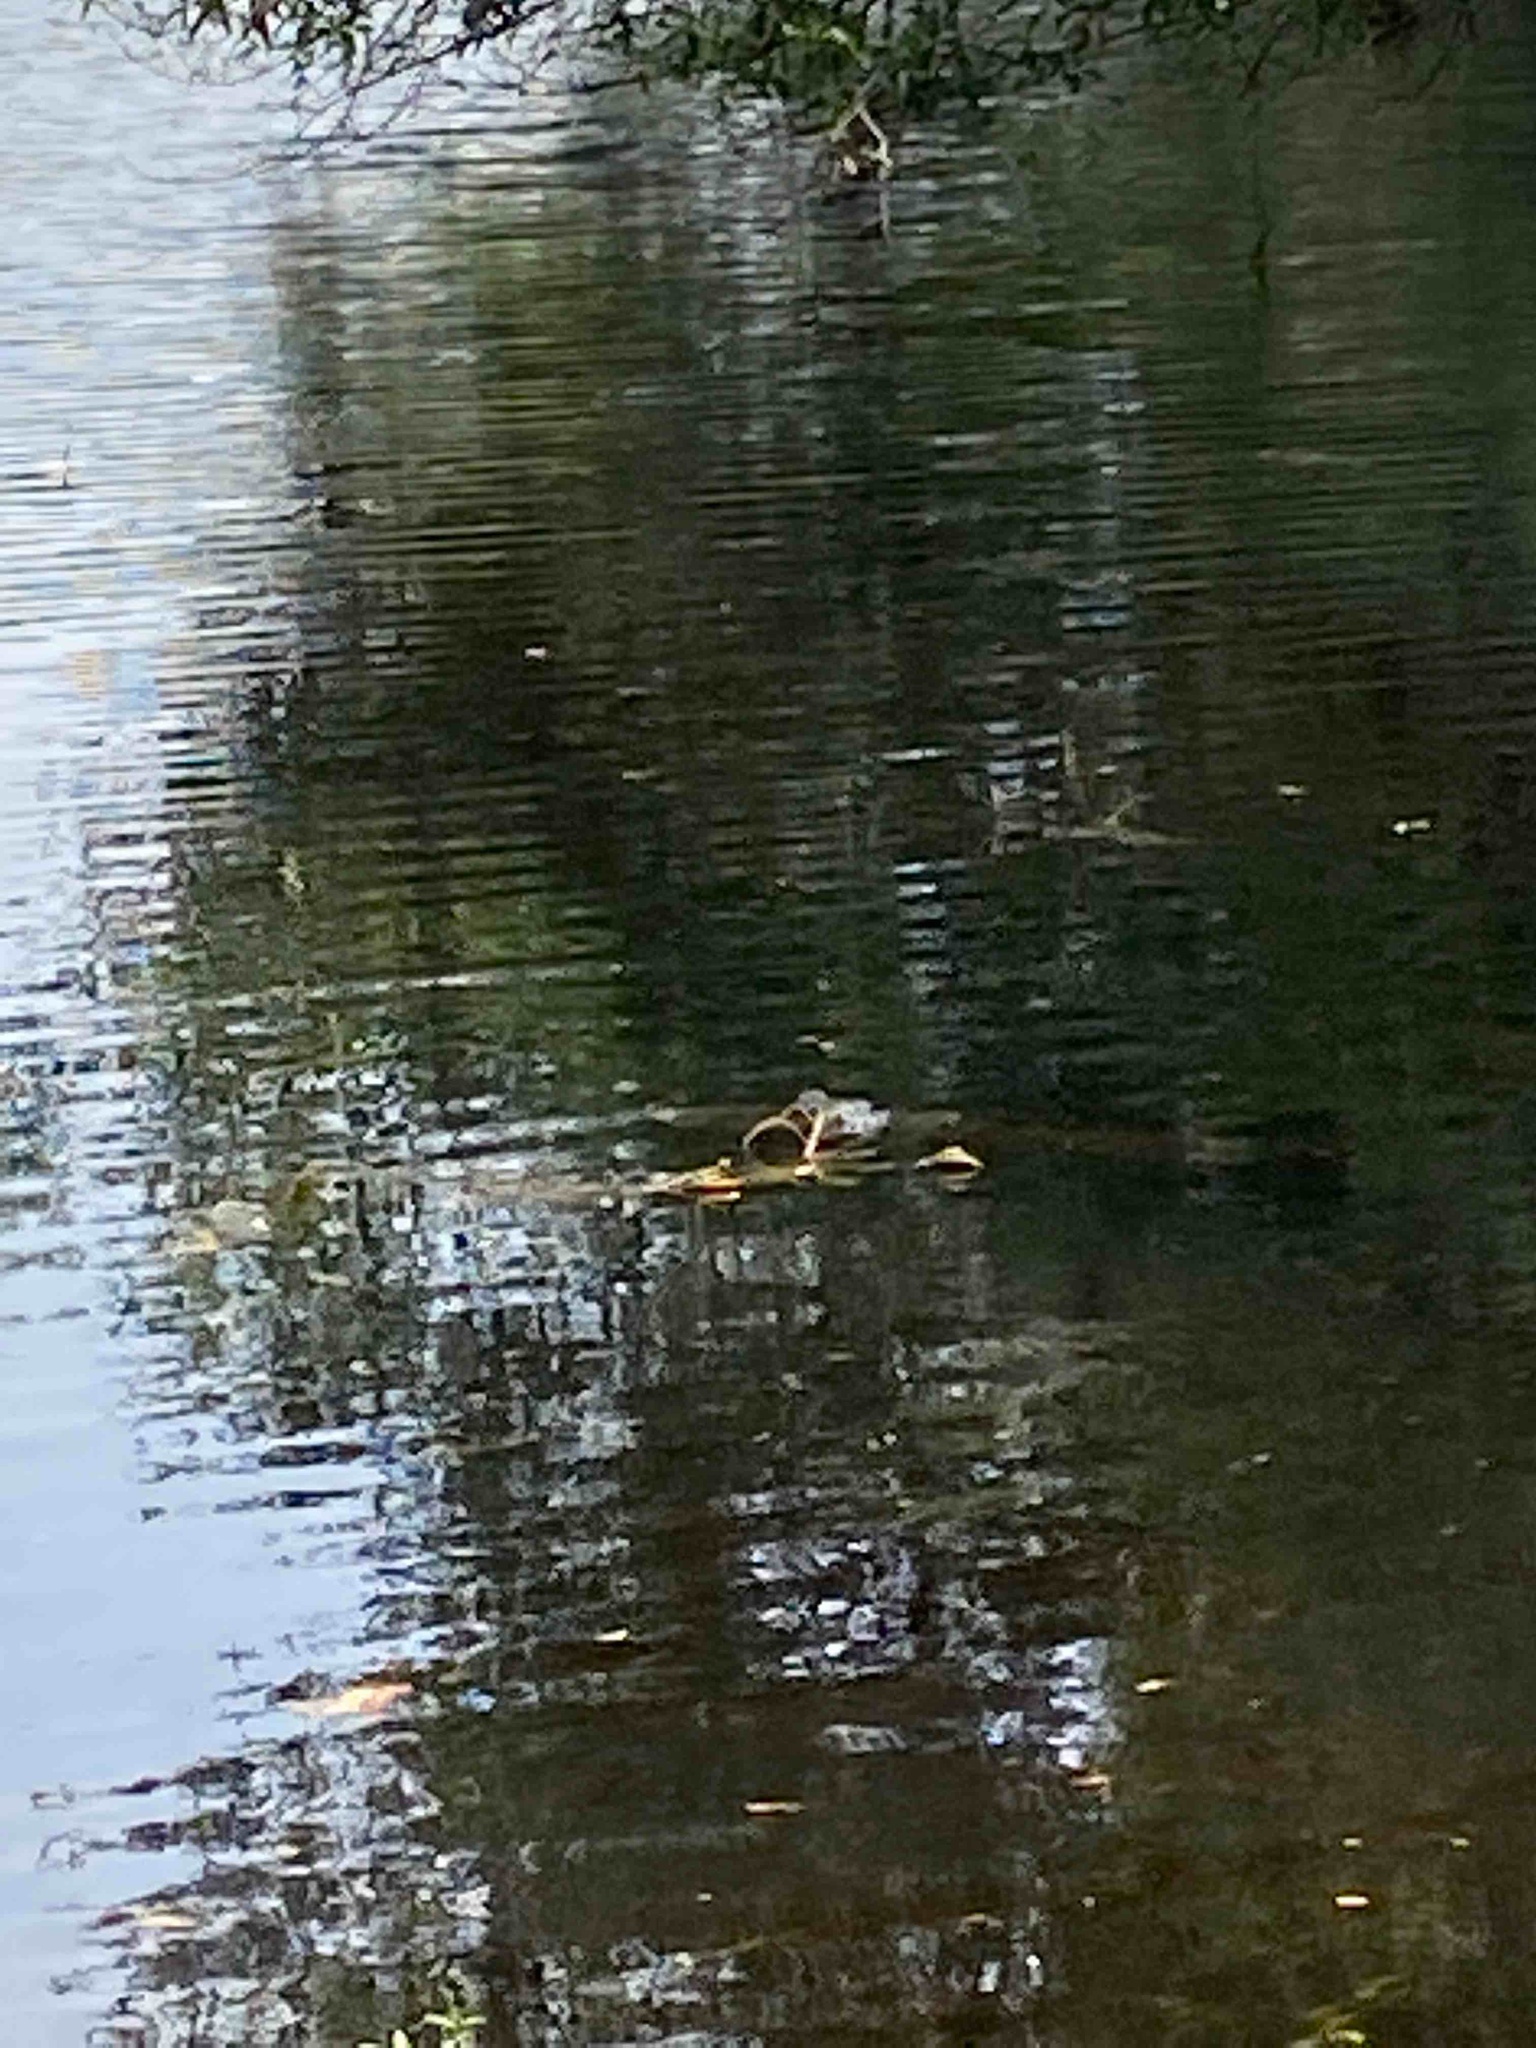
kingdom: Animalia
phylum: Chordata
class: Crocodylia
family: Alligatoridae
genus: Alligator
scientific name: Alligator mississippiensis
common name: American alligator
